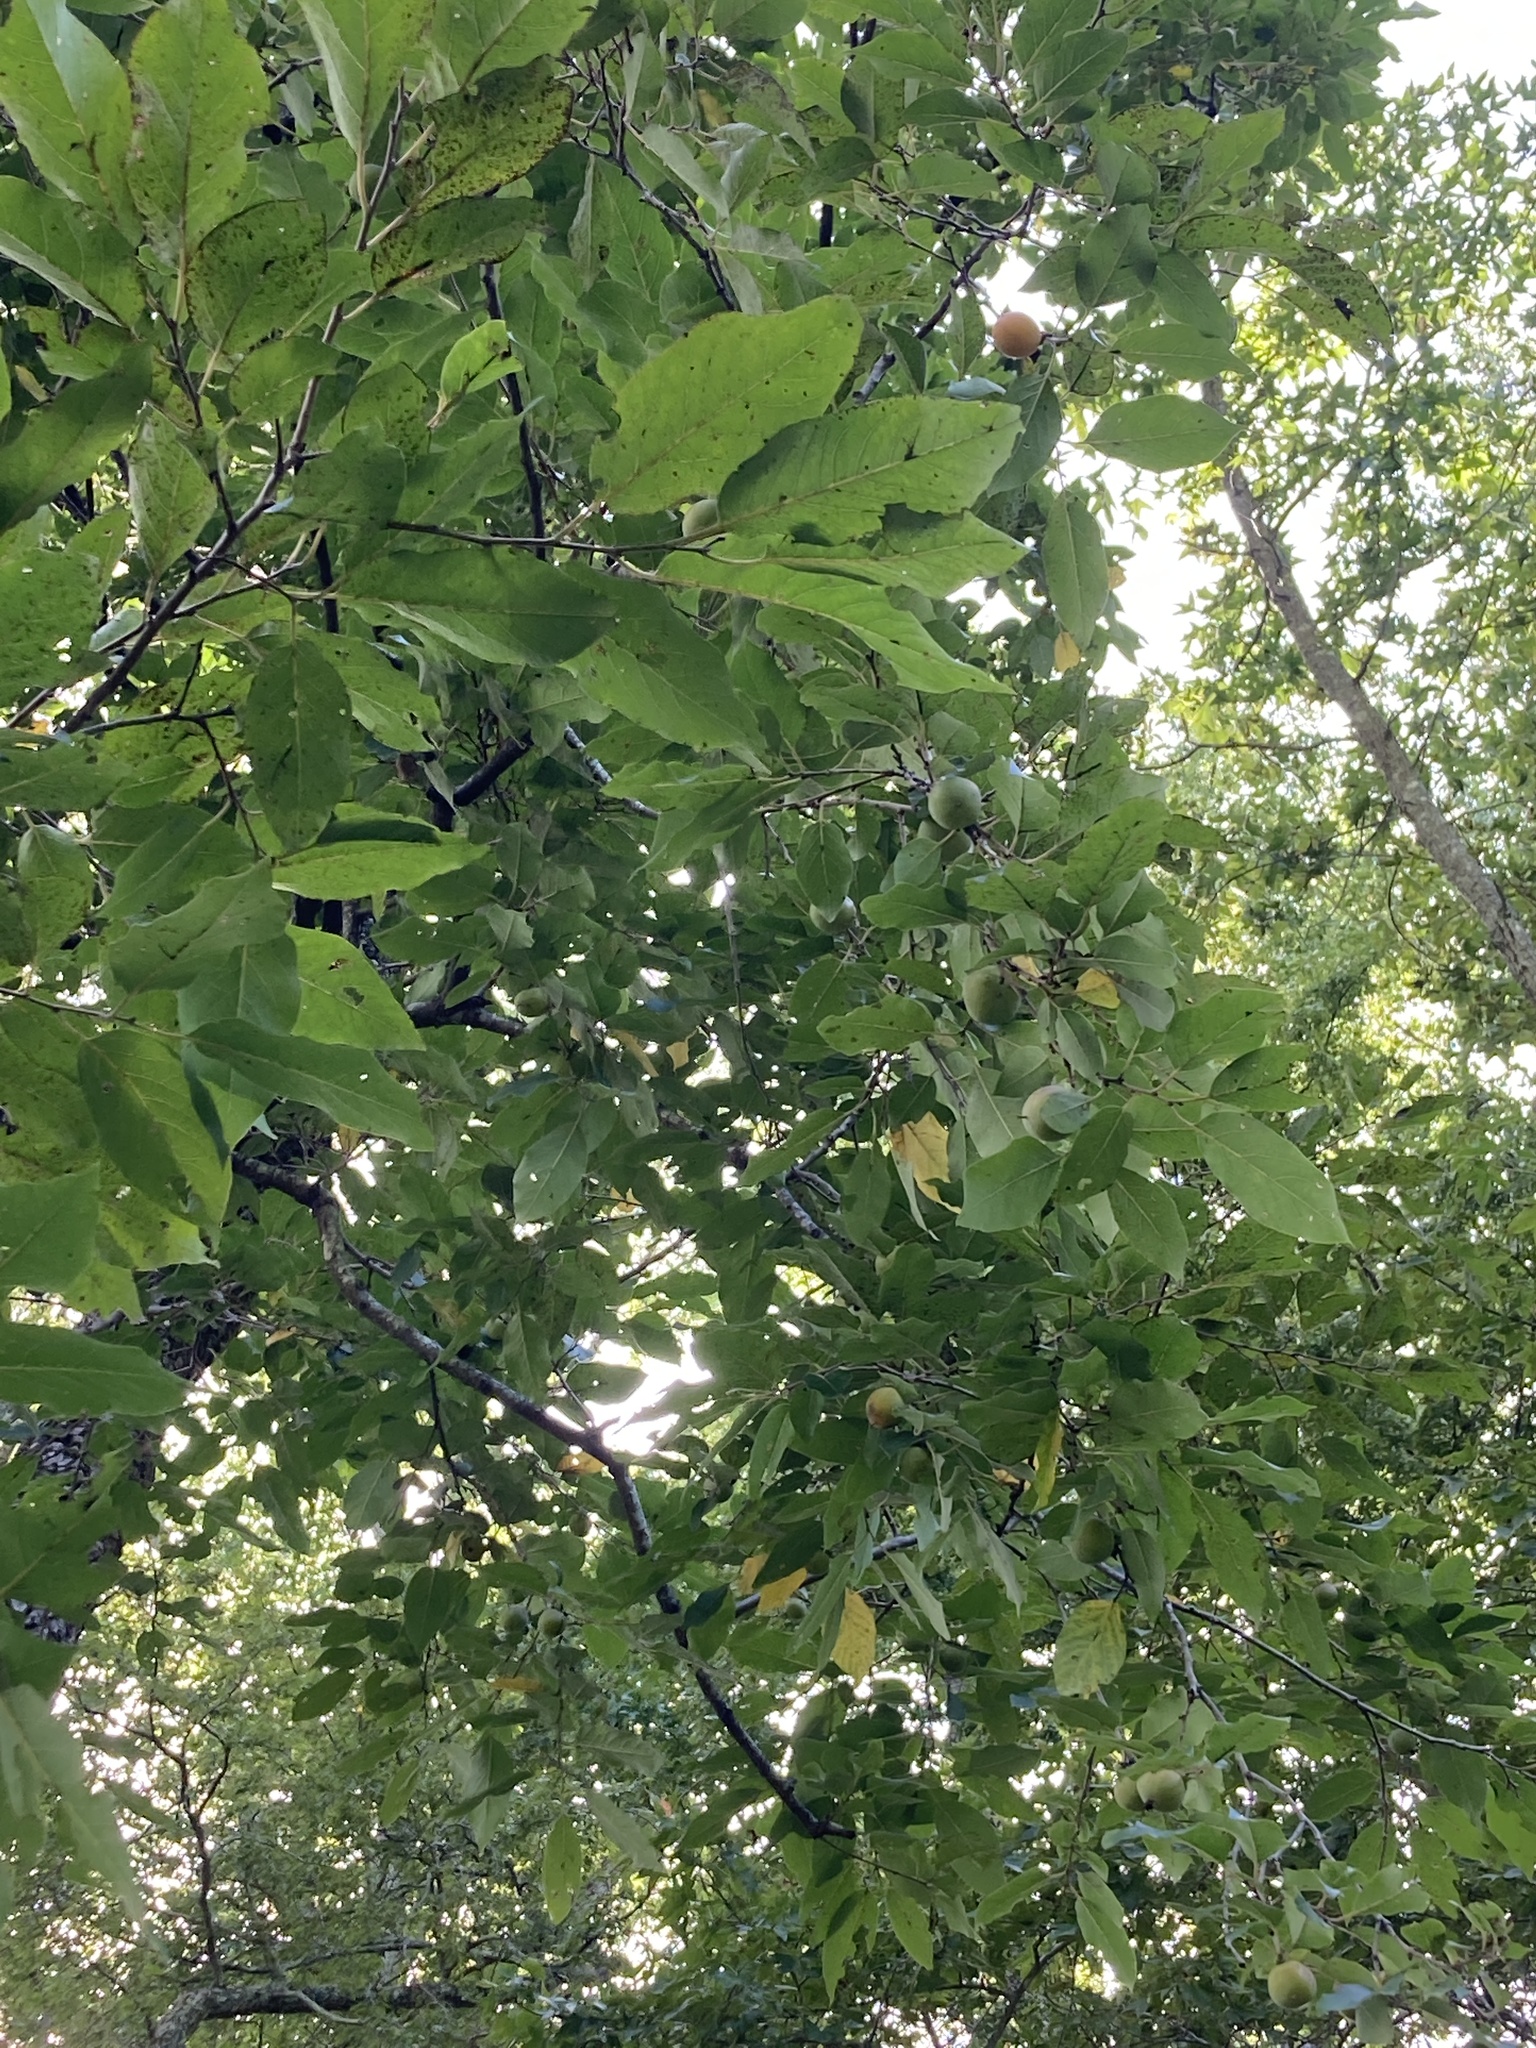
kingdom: Plantae
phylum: Tracheophyta
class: Magnoliopsida
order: Ericales
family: Ebenaceae
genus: Diospyros
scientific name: Diospyros virginiana
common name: Persimmon
